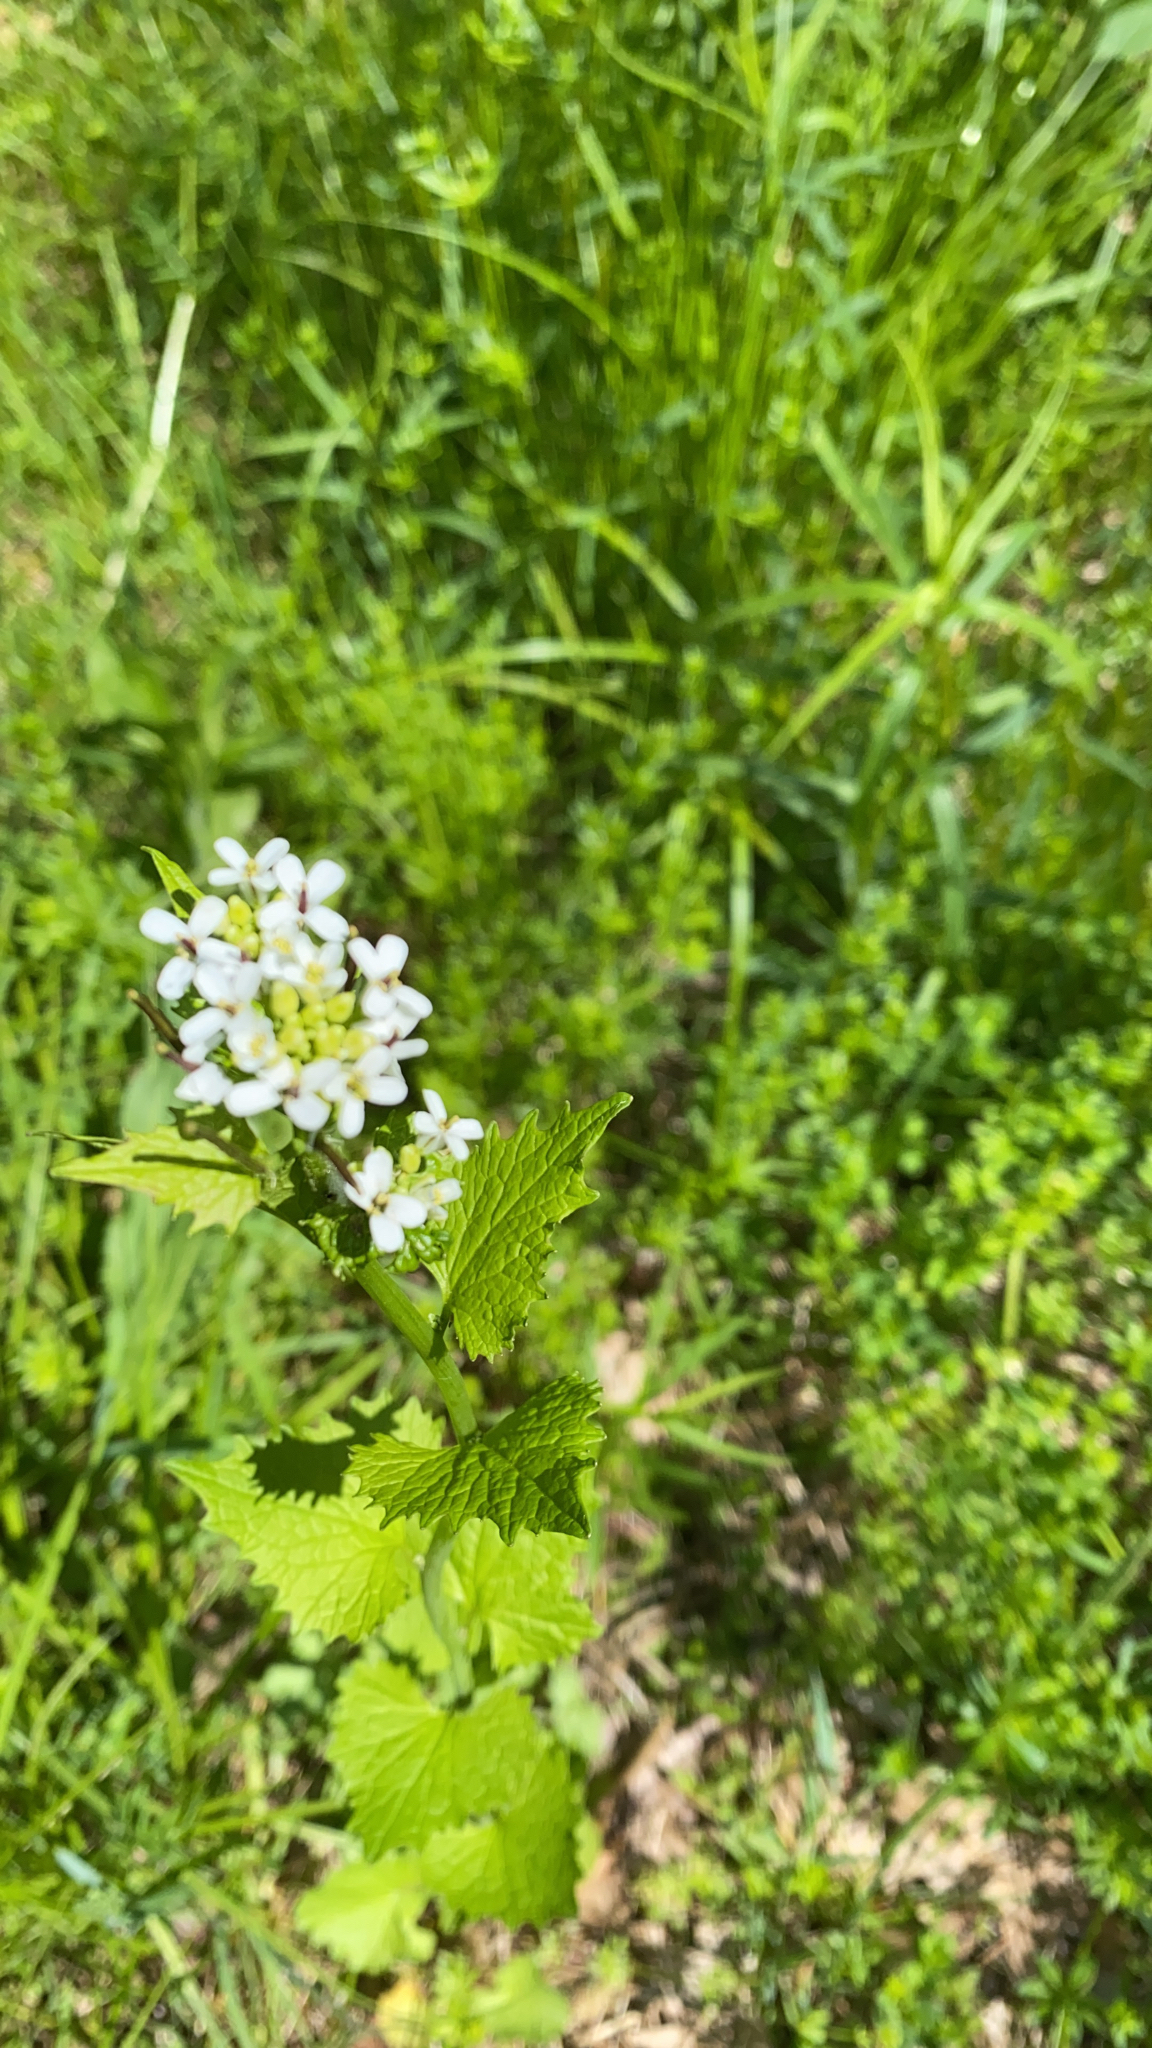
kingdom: Plantae
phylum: Tracheophyta
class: Magnoliopsida
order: Brassicales
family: Brassicaceae
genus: Alliaria
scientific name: Alliaria petiolata
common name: Garlic mustard
